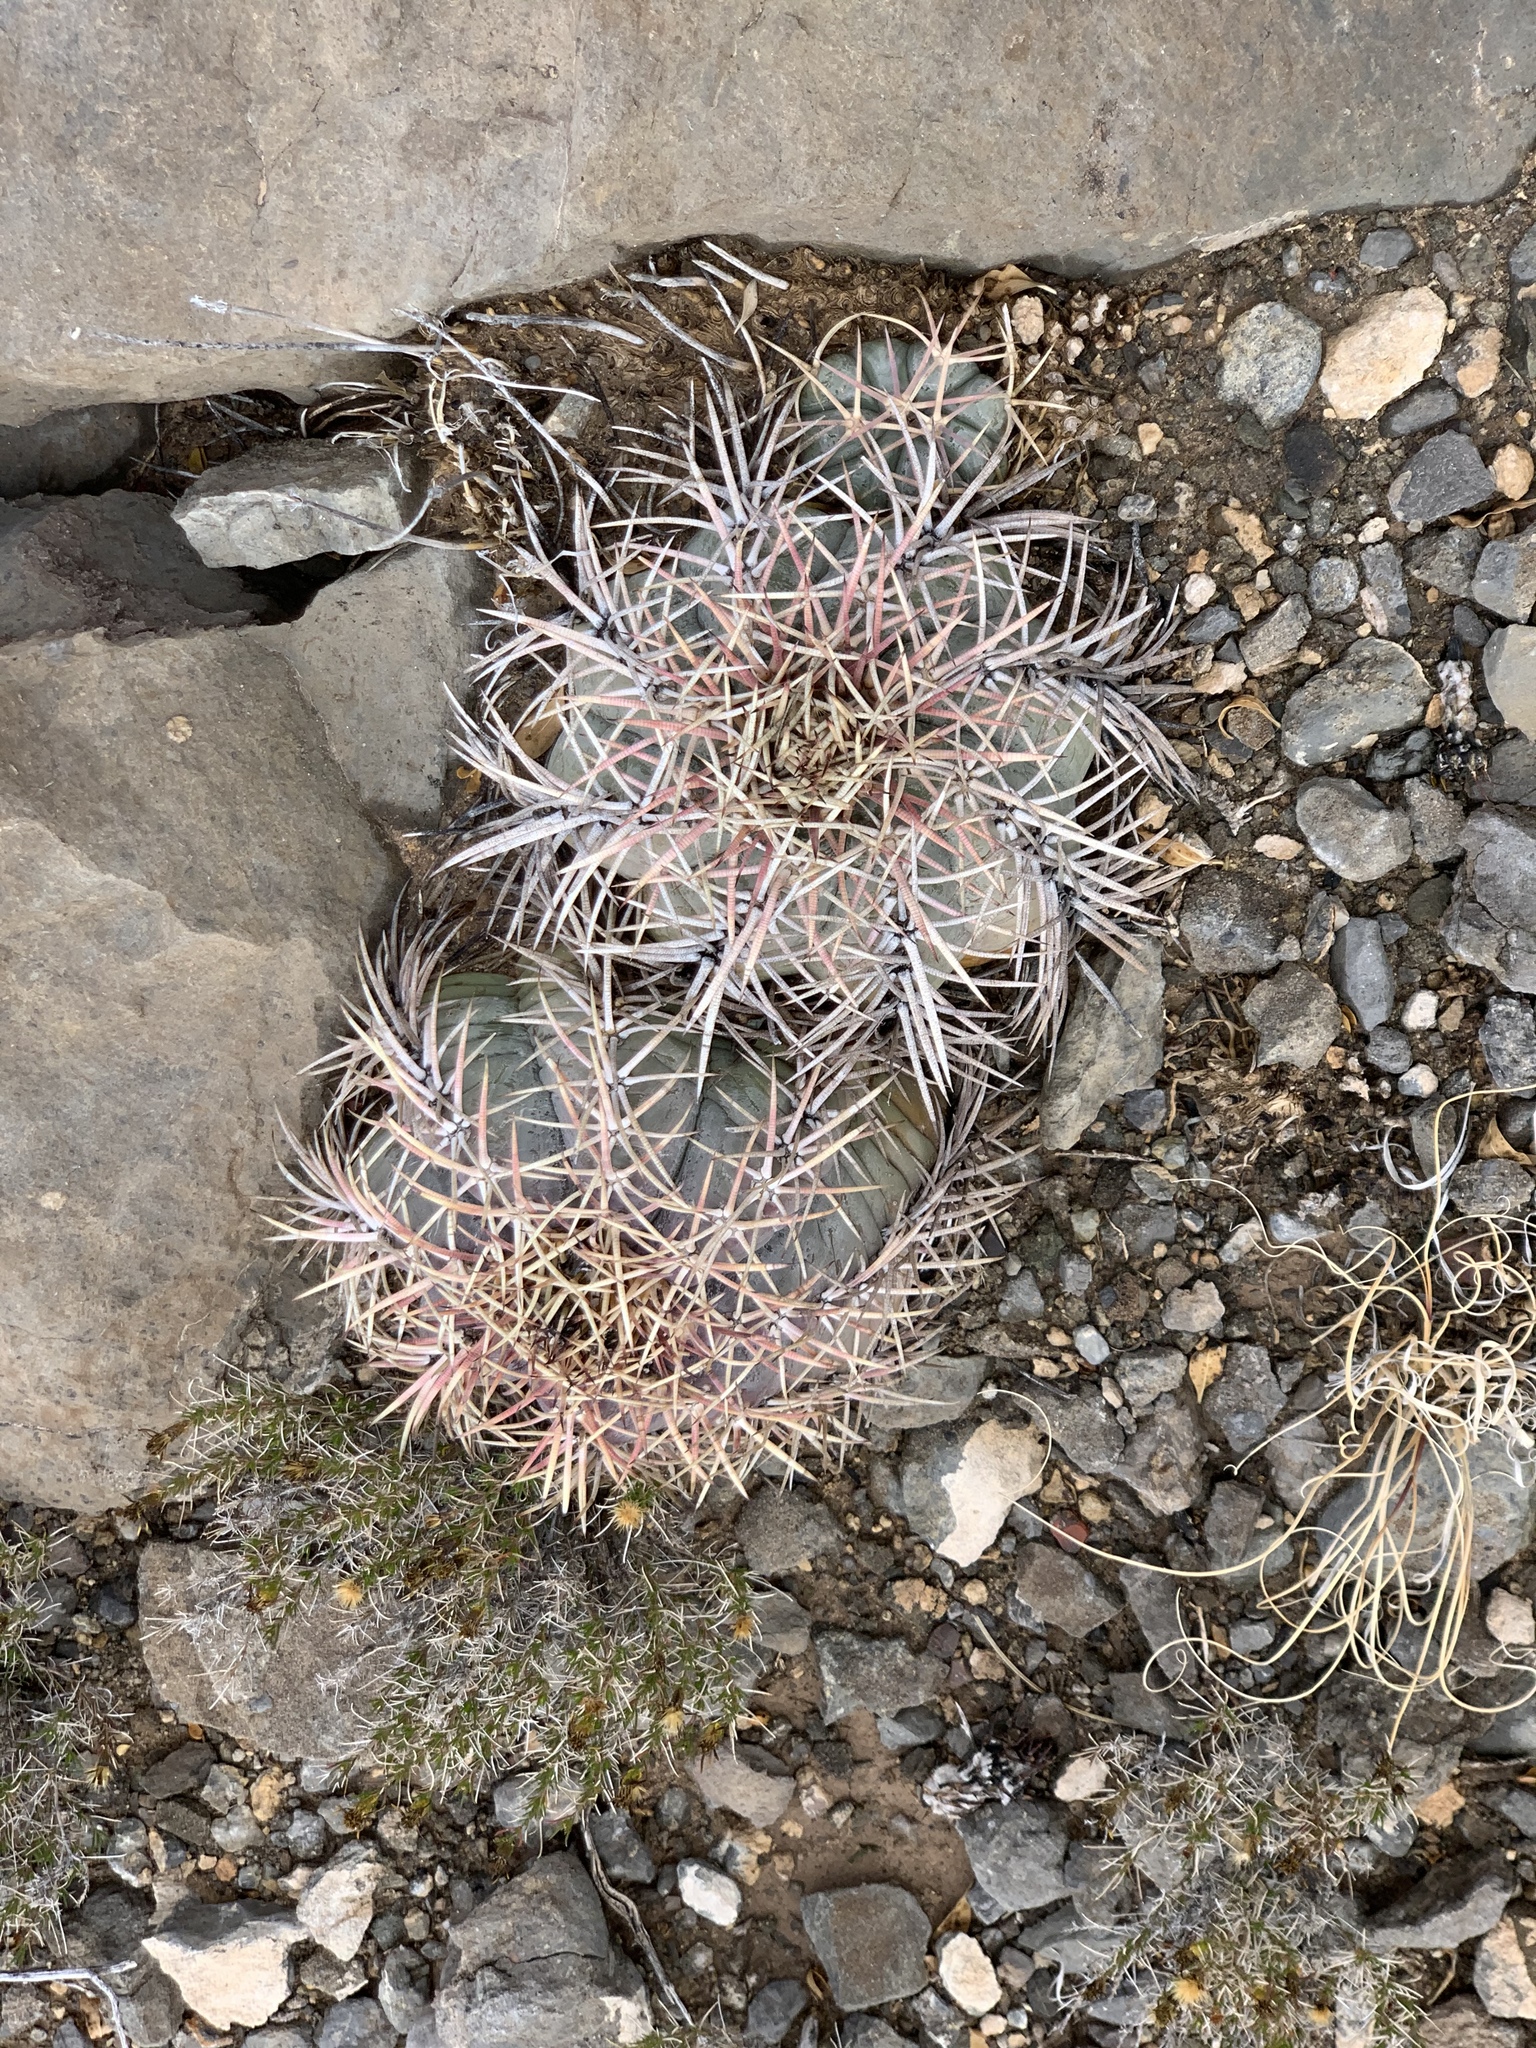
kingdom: Plantae
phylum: Tracheophyta
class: Magnoliopsida
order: Caryophyllales
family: Cactaceae
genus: Echinocactus
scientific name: Echinocactus horizonthalonius
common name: Devilshead
